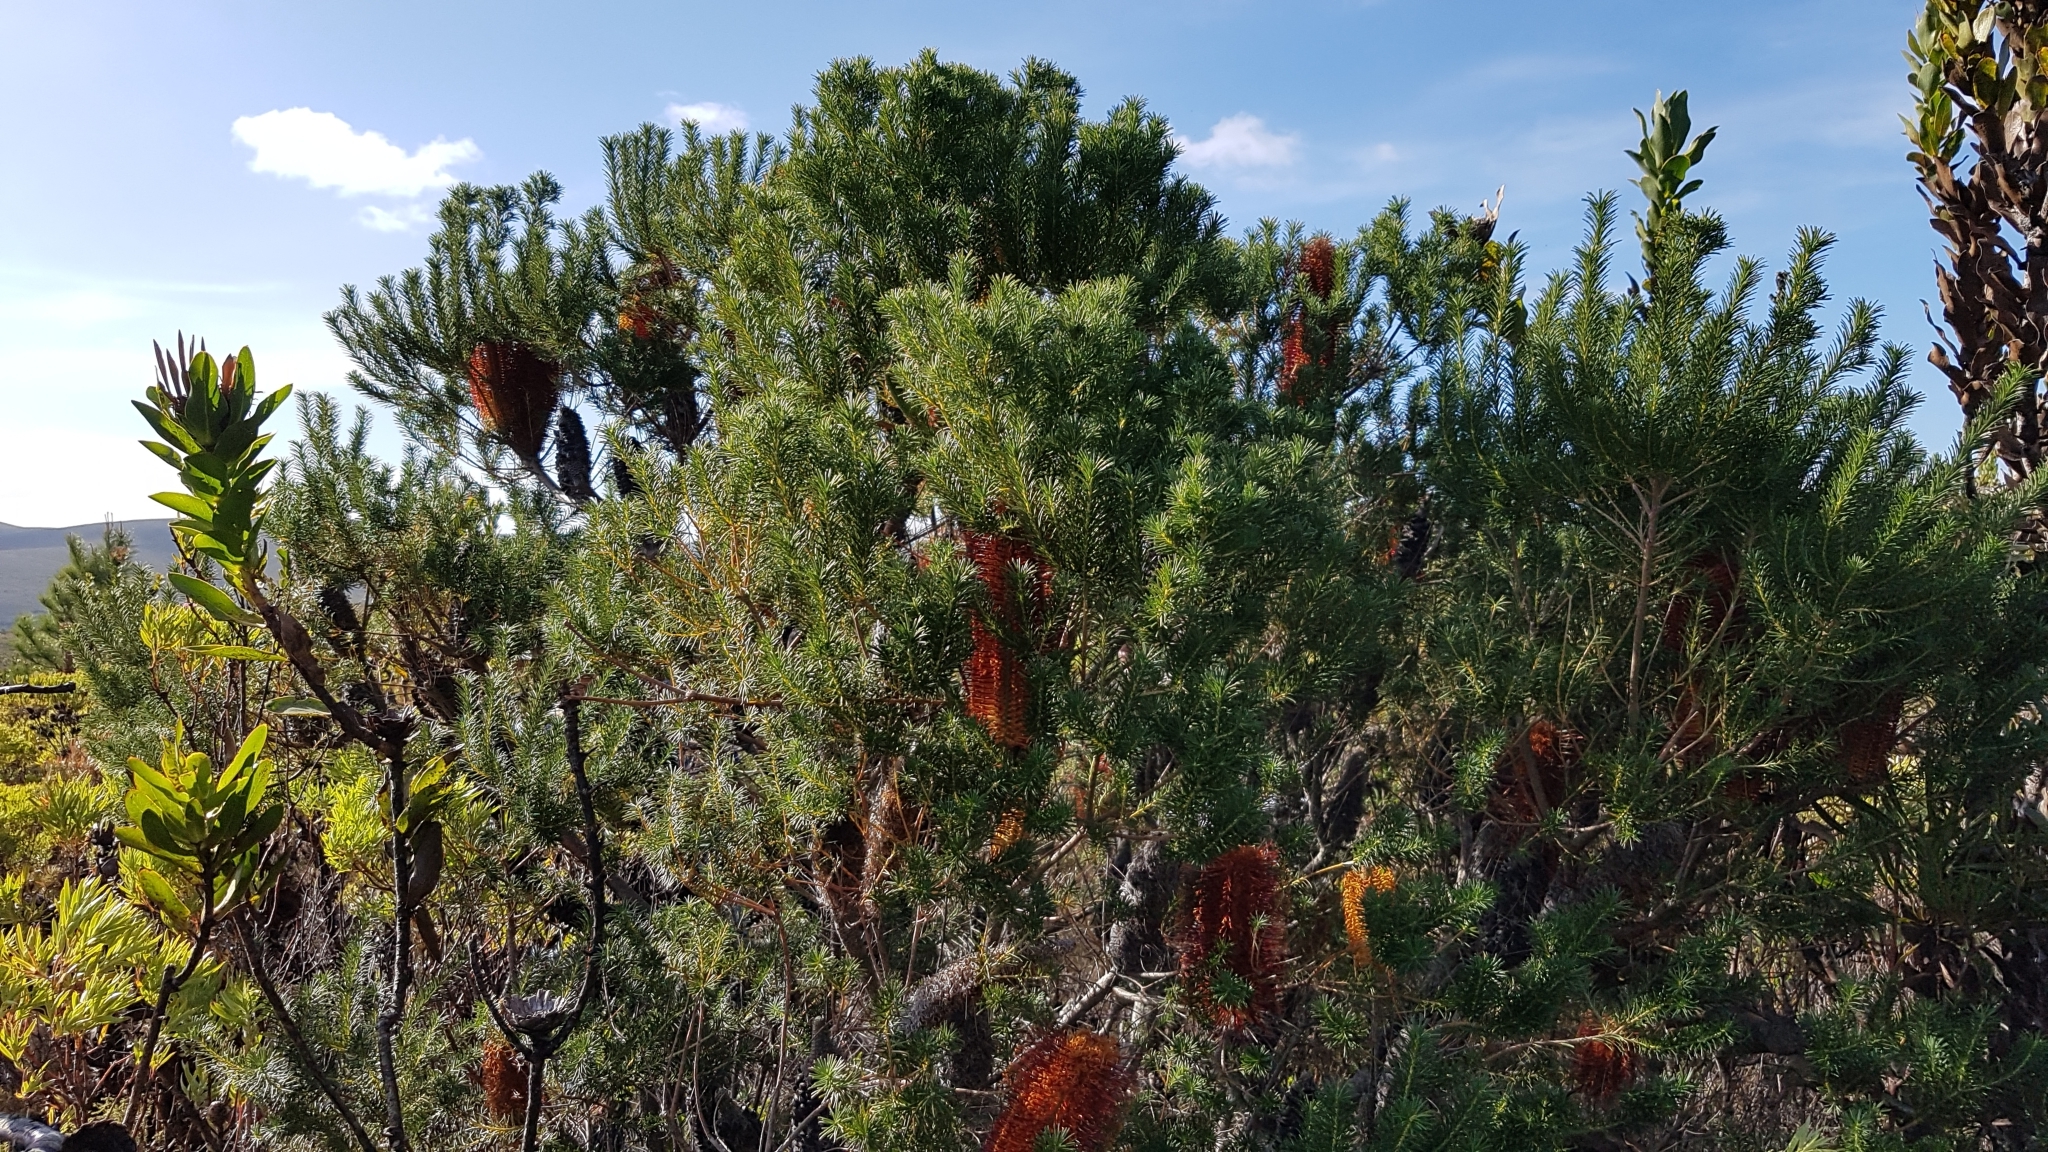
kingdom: Plantae
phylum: Tracheophyta
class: Magnoliopsida
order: Proteales
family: Proteaceae
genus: Banksia
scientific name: Banksia ericifolia
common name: Heath-leaf banksia
